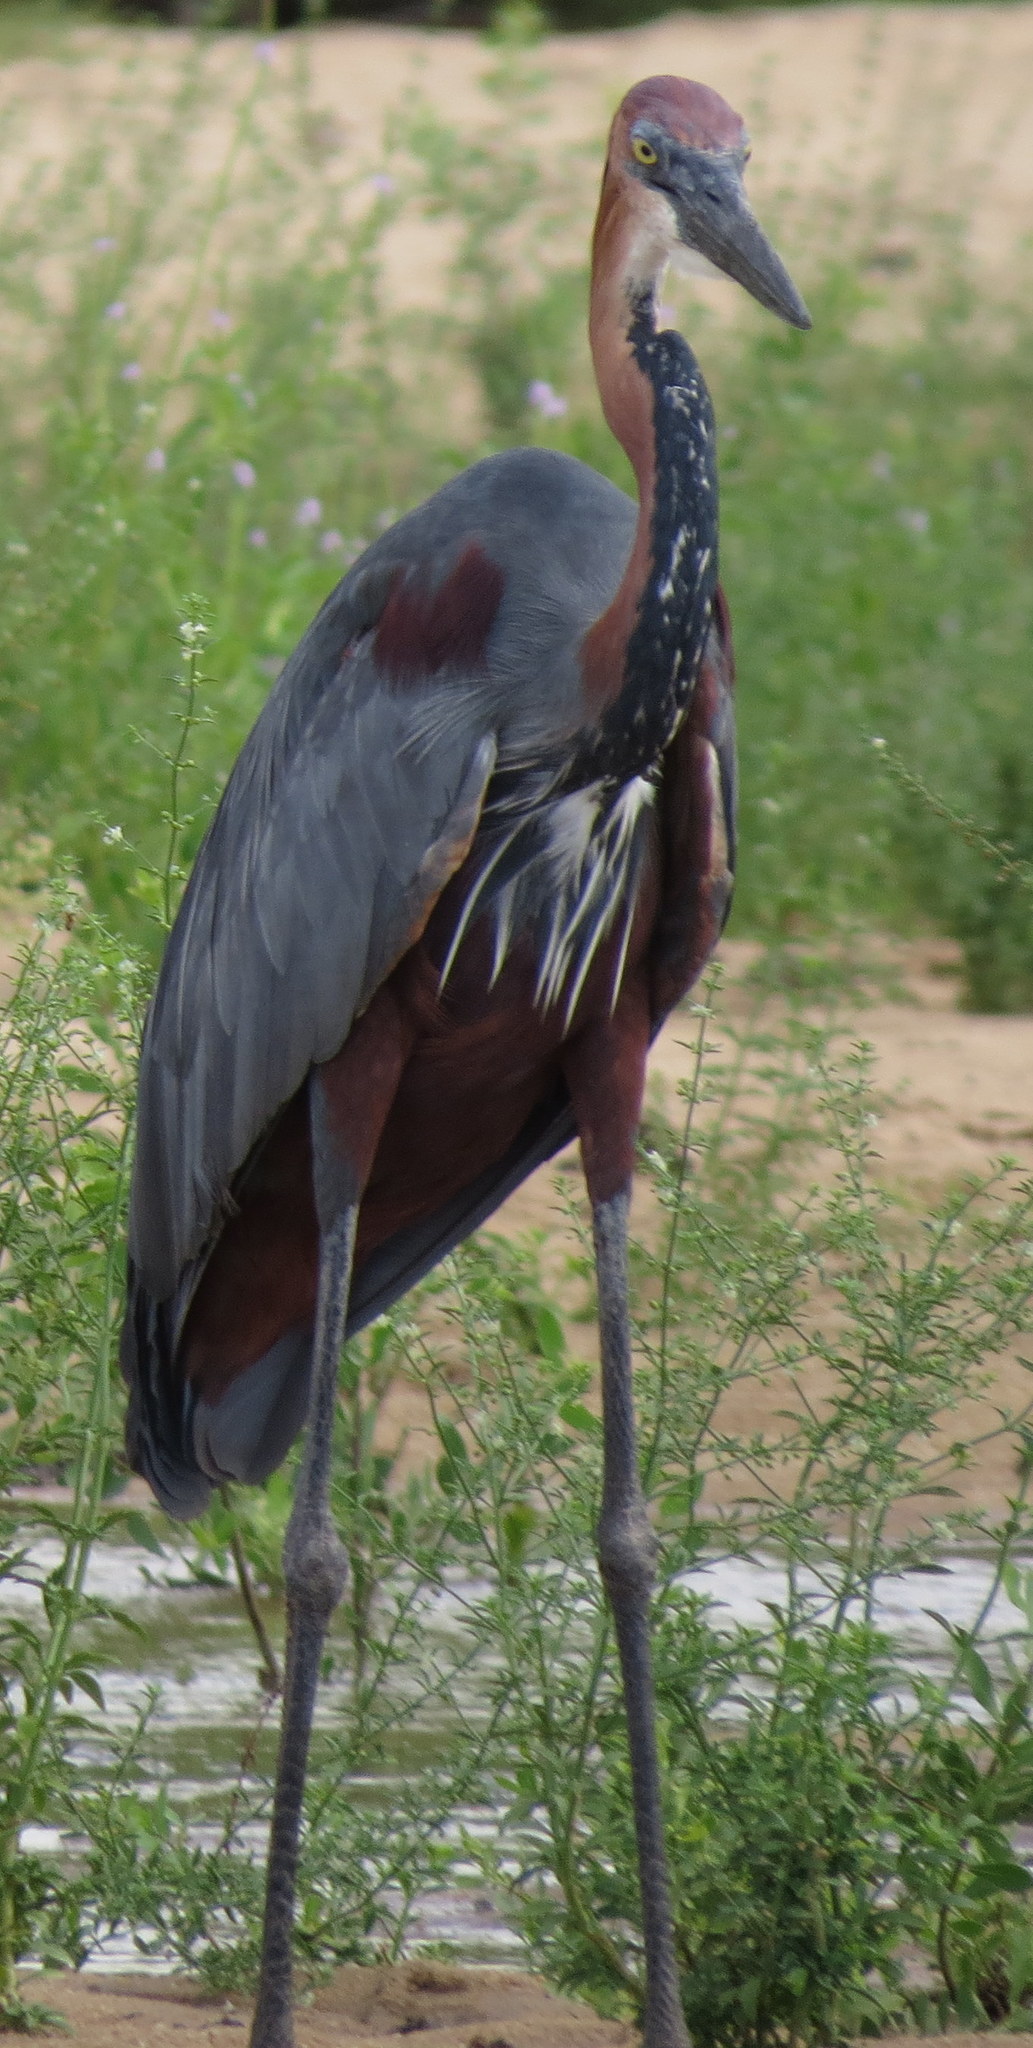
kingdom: Animalia
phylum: Chordata
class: Aves
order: Pelecaniformes
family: Ardeidae
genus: Ardea
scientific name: Ardea goliath
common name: Goliath heron
